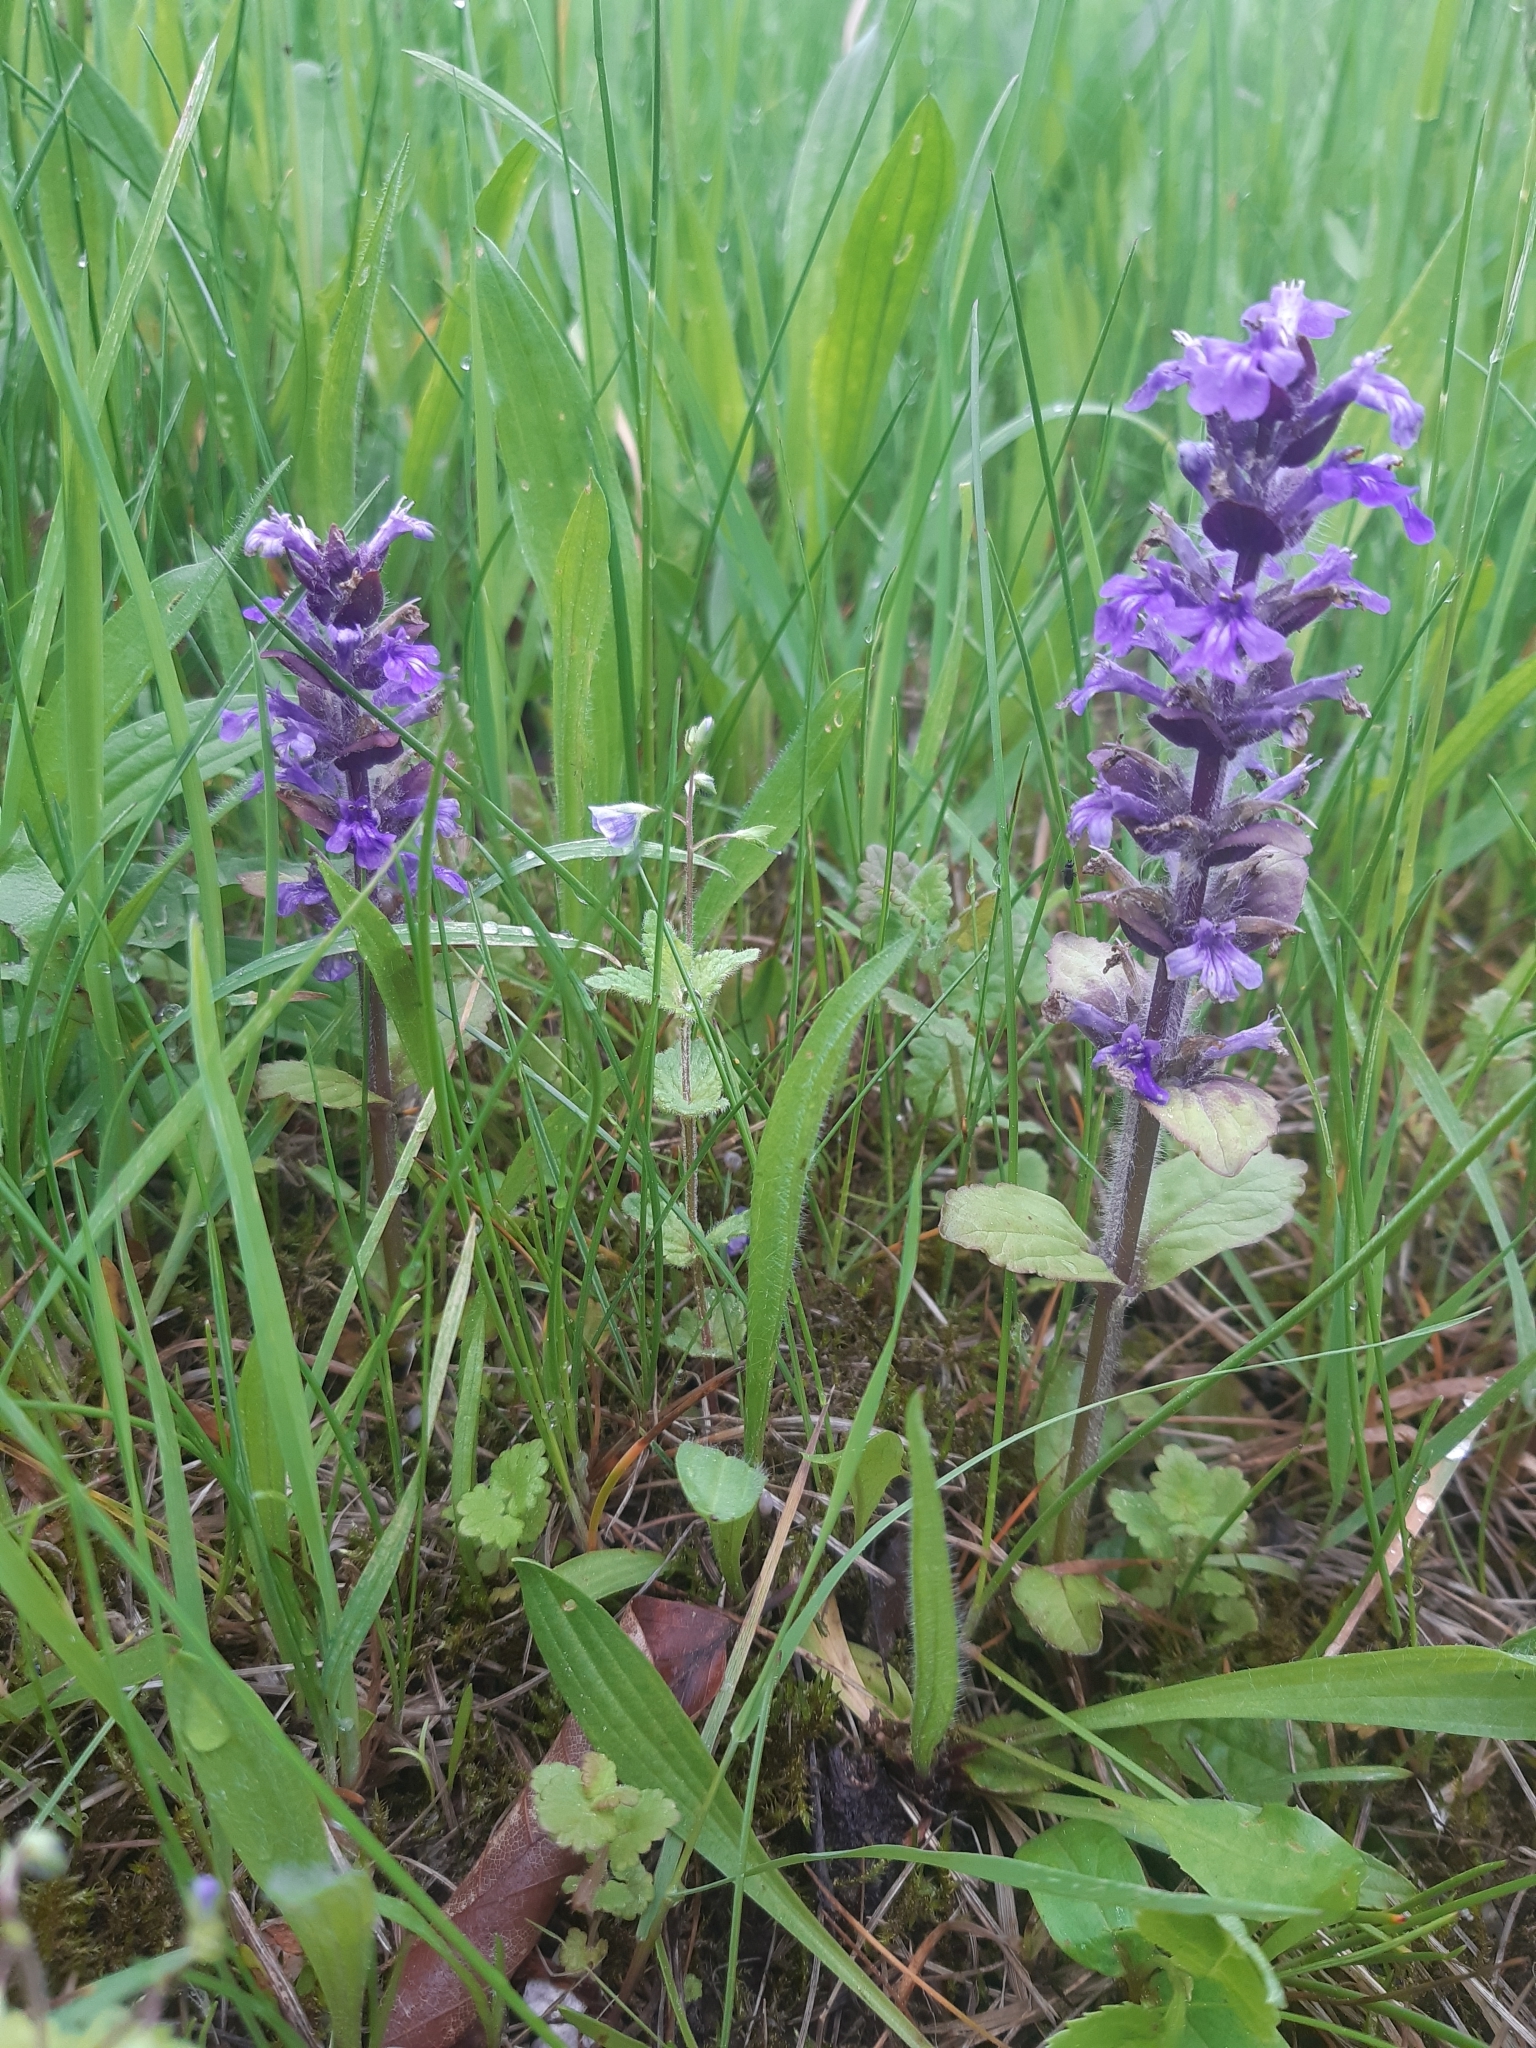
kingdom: Plantae
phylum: Tracheophyta
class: Magnoliopsida
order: Lamiales
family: Lamiaceae
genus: Ajuga
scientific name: Ajuga reptans
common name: Bugle
